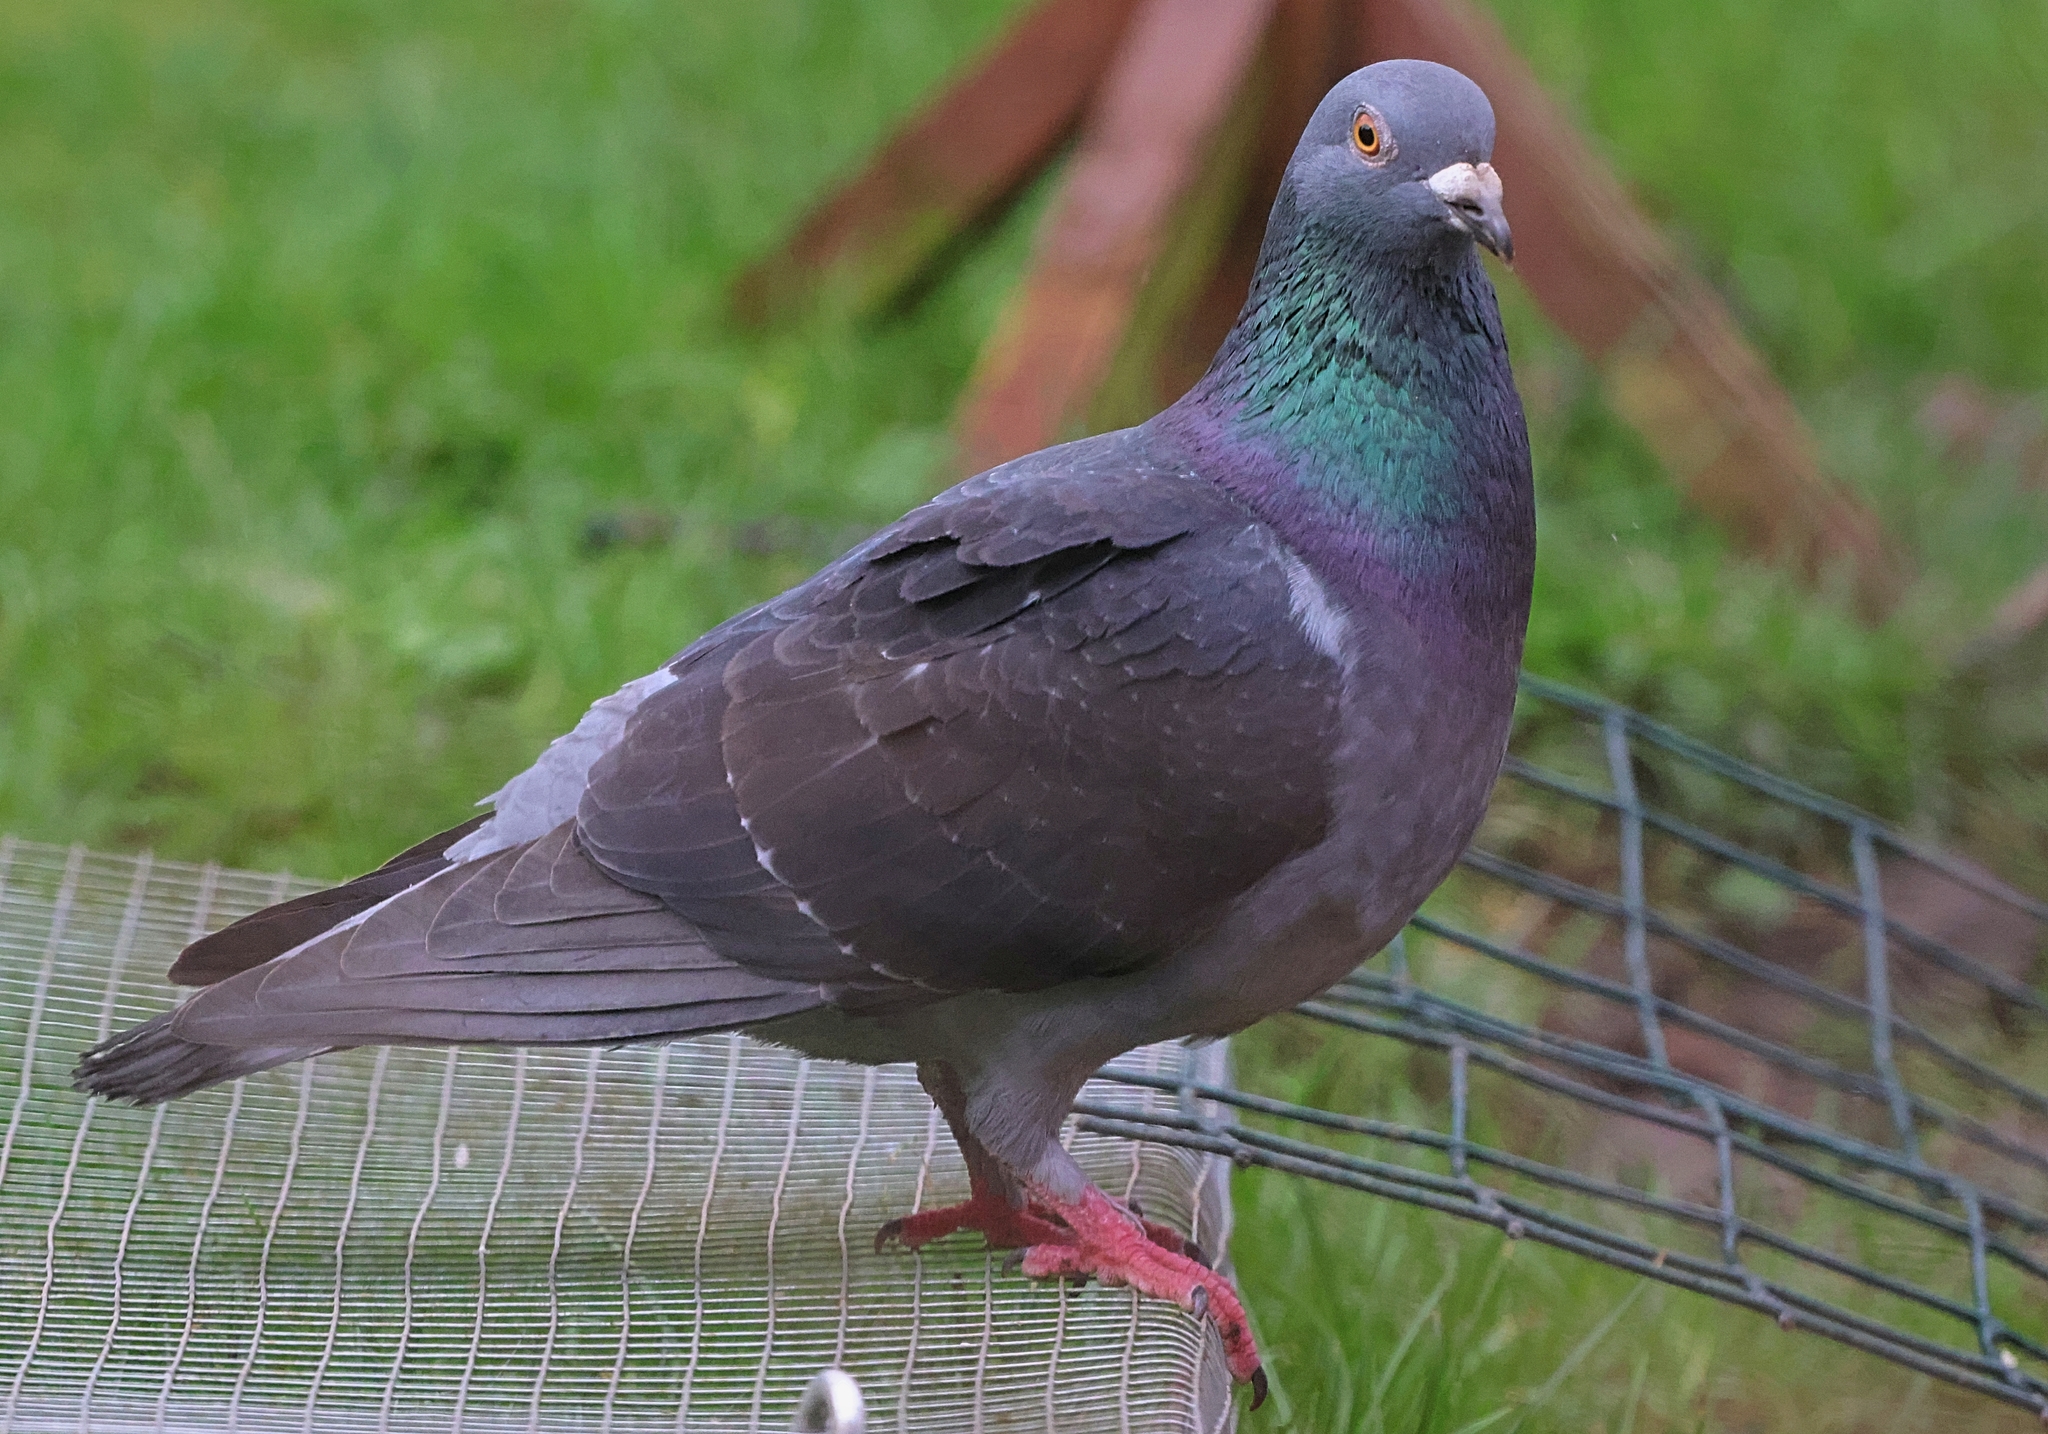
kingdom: Animalia
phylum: Chordata
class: Aves
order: Columbiformes
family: Columbidae
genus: Columba
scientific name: Columba livia
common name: Rock pigeon
